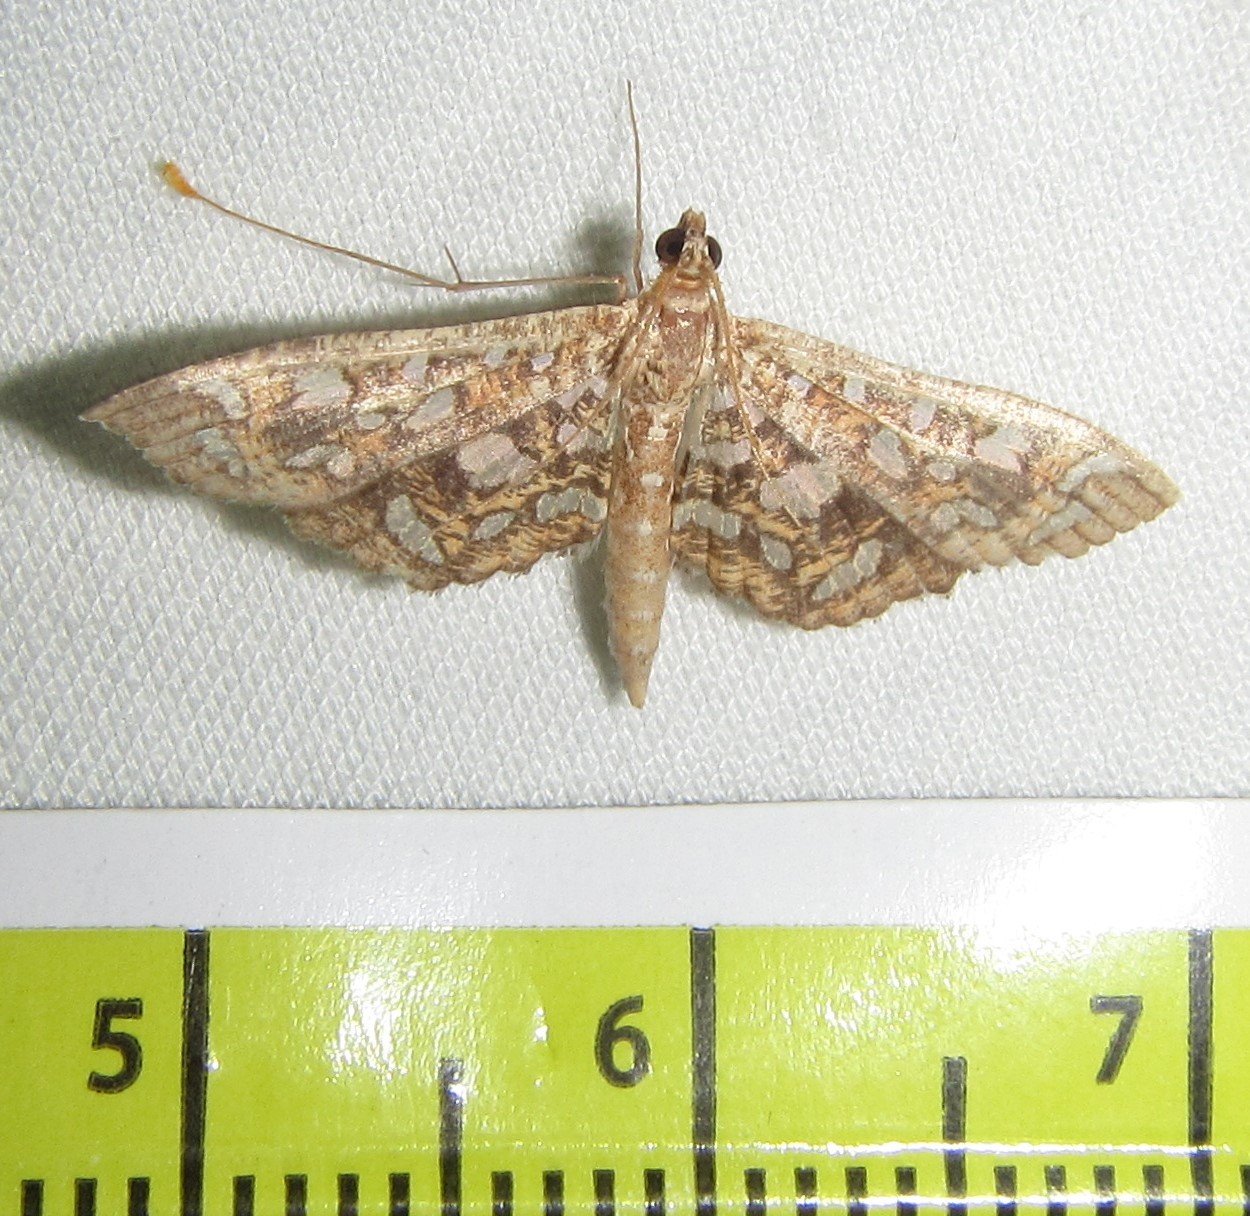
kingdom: Animalia
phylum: Arthropoda
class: Insecta
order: Lepidoptera
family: Crambidae
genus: Nausinoe
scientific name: Nausinoe geometralis
